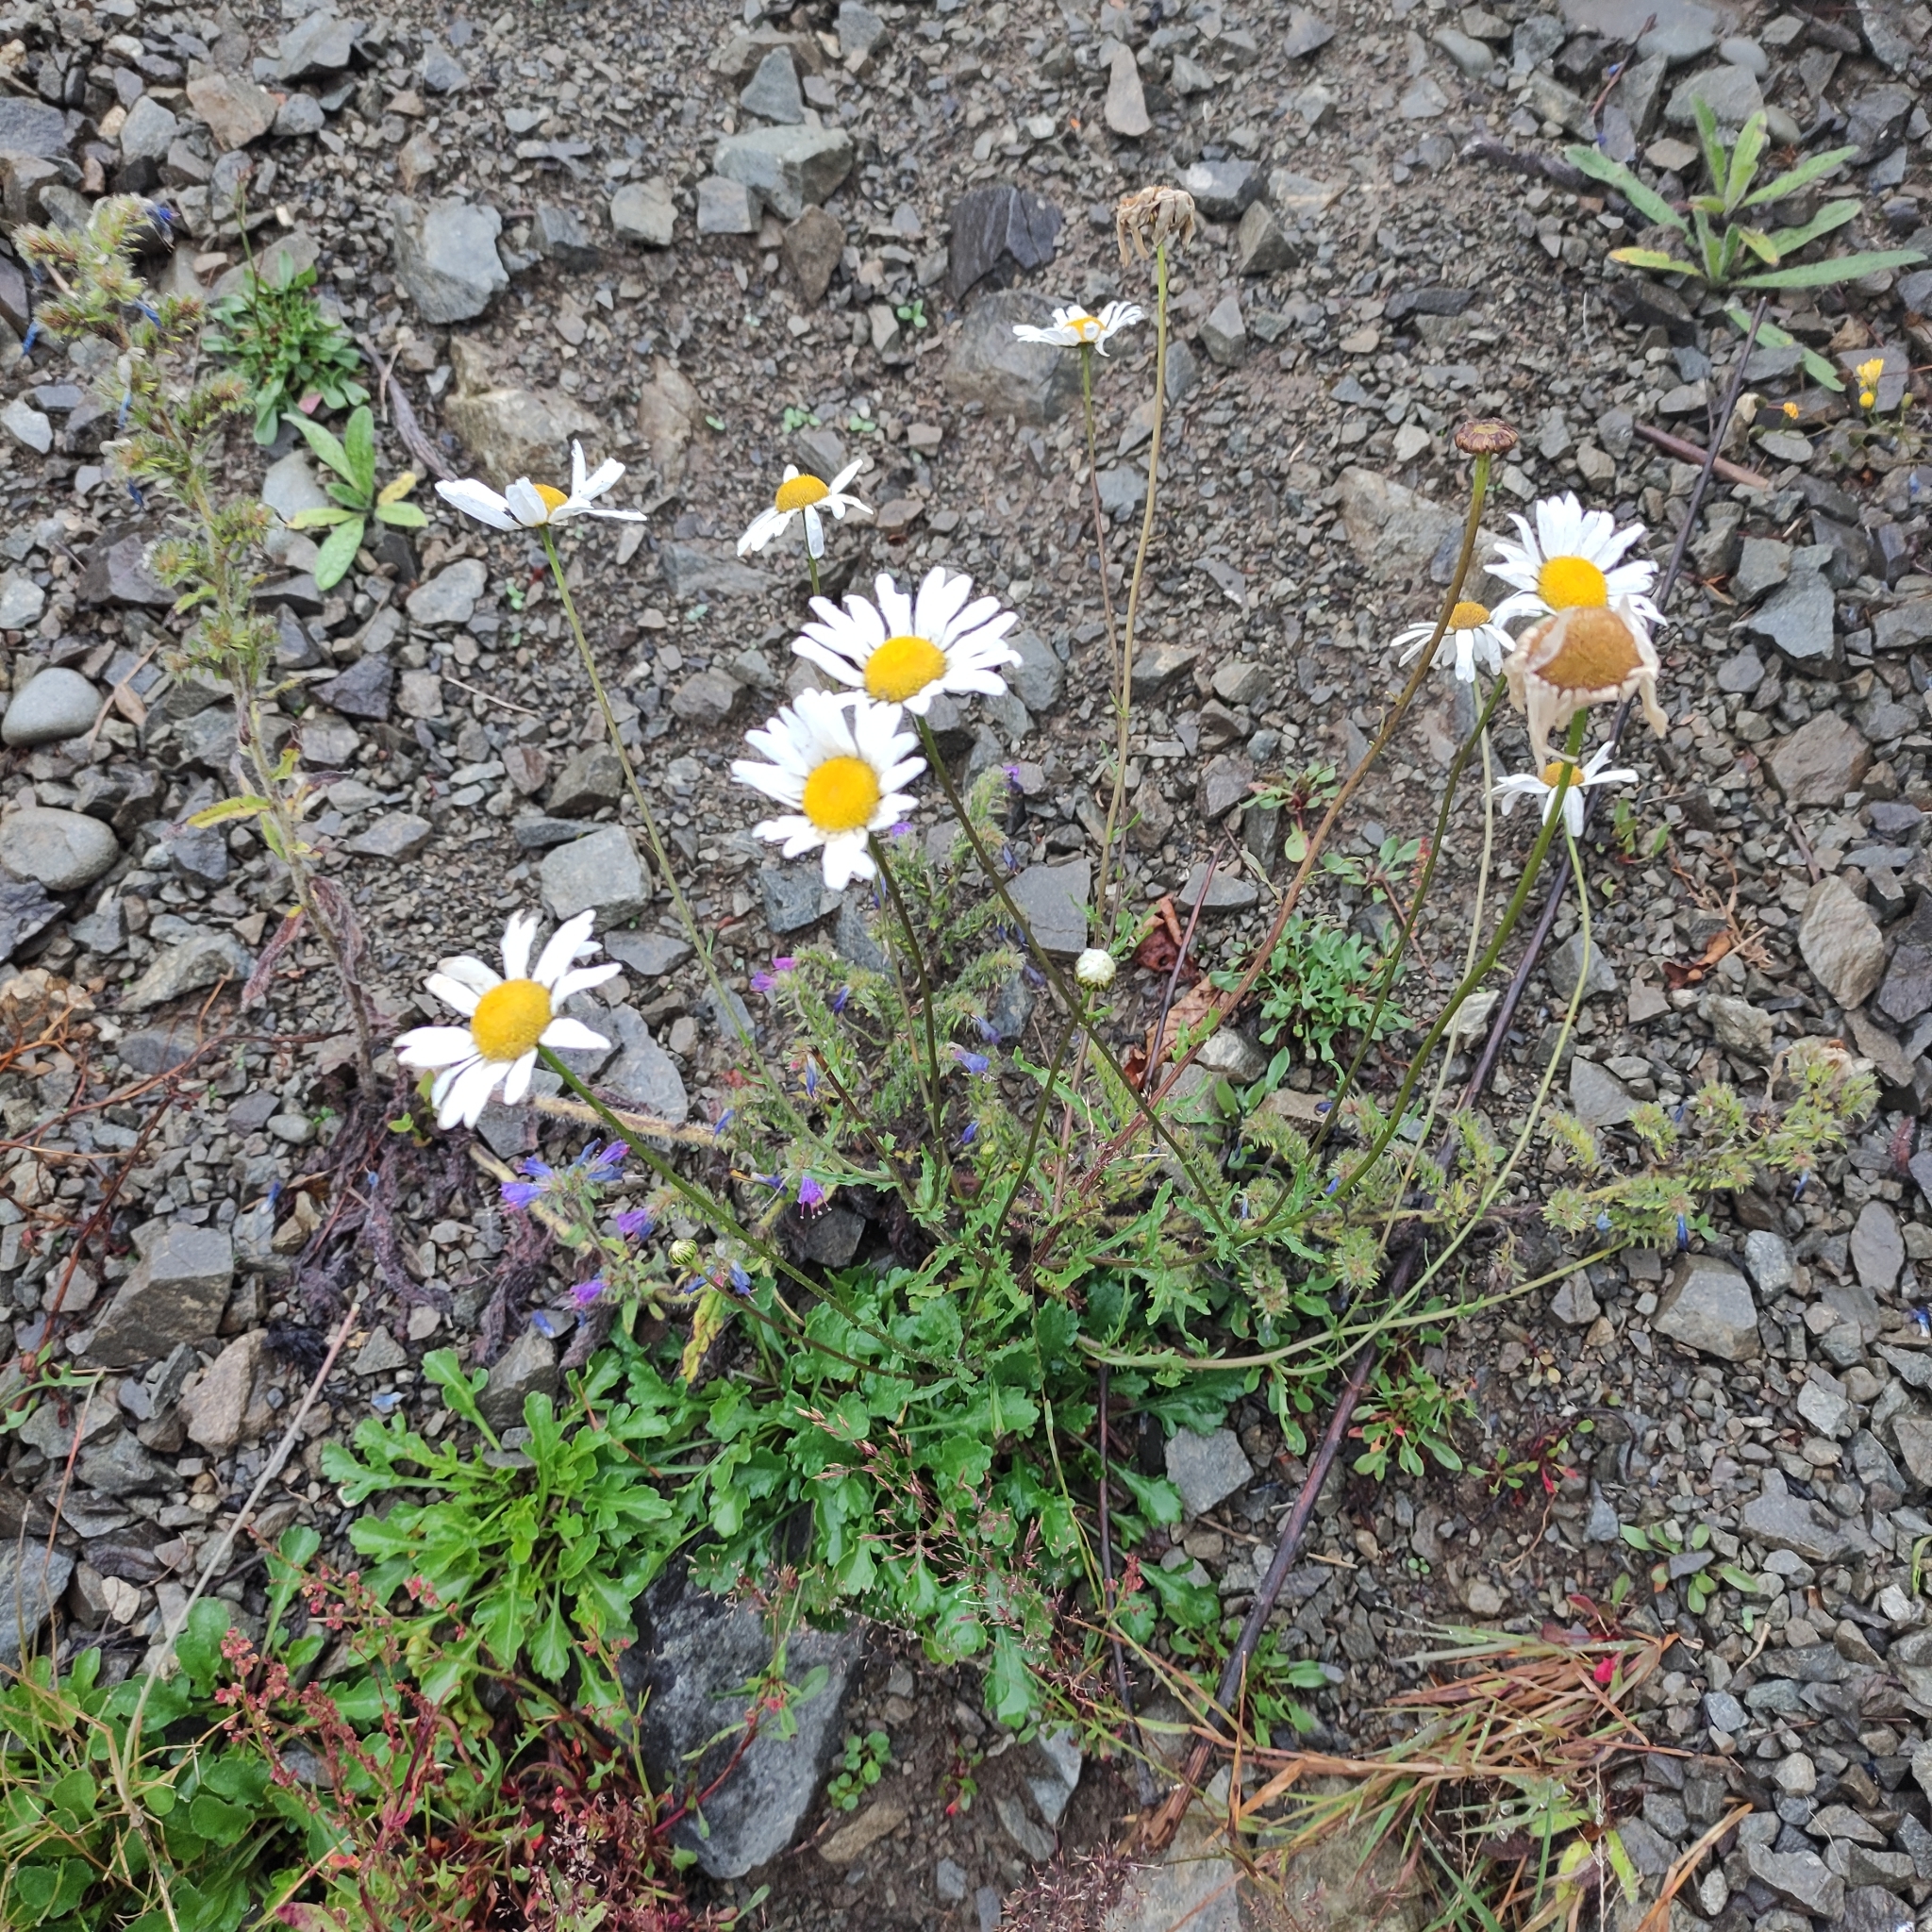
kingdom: Plantae
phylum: Tracheophyta
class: Magnoliopsida
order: Asterales
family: Asteraceae
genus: Leucanthemum
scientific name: Leucanthemum vulgare
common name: Oxeye daisy
